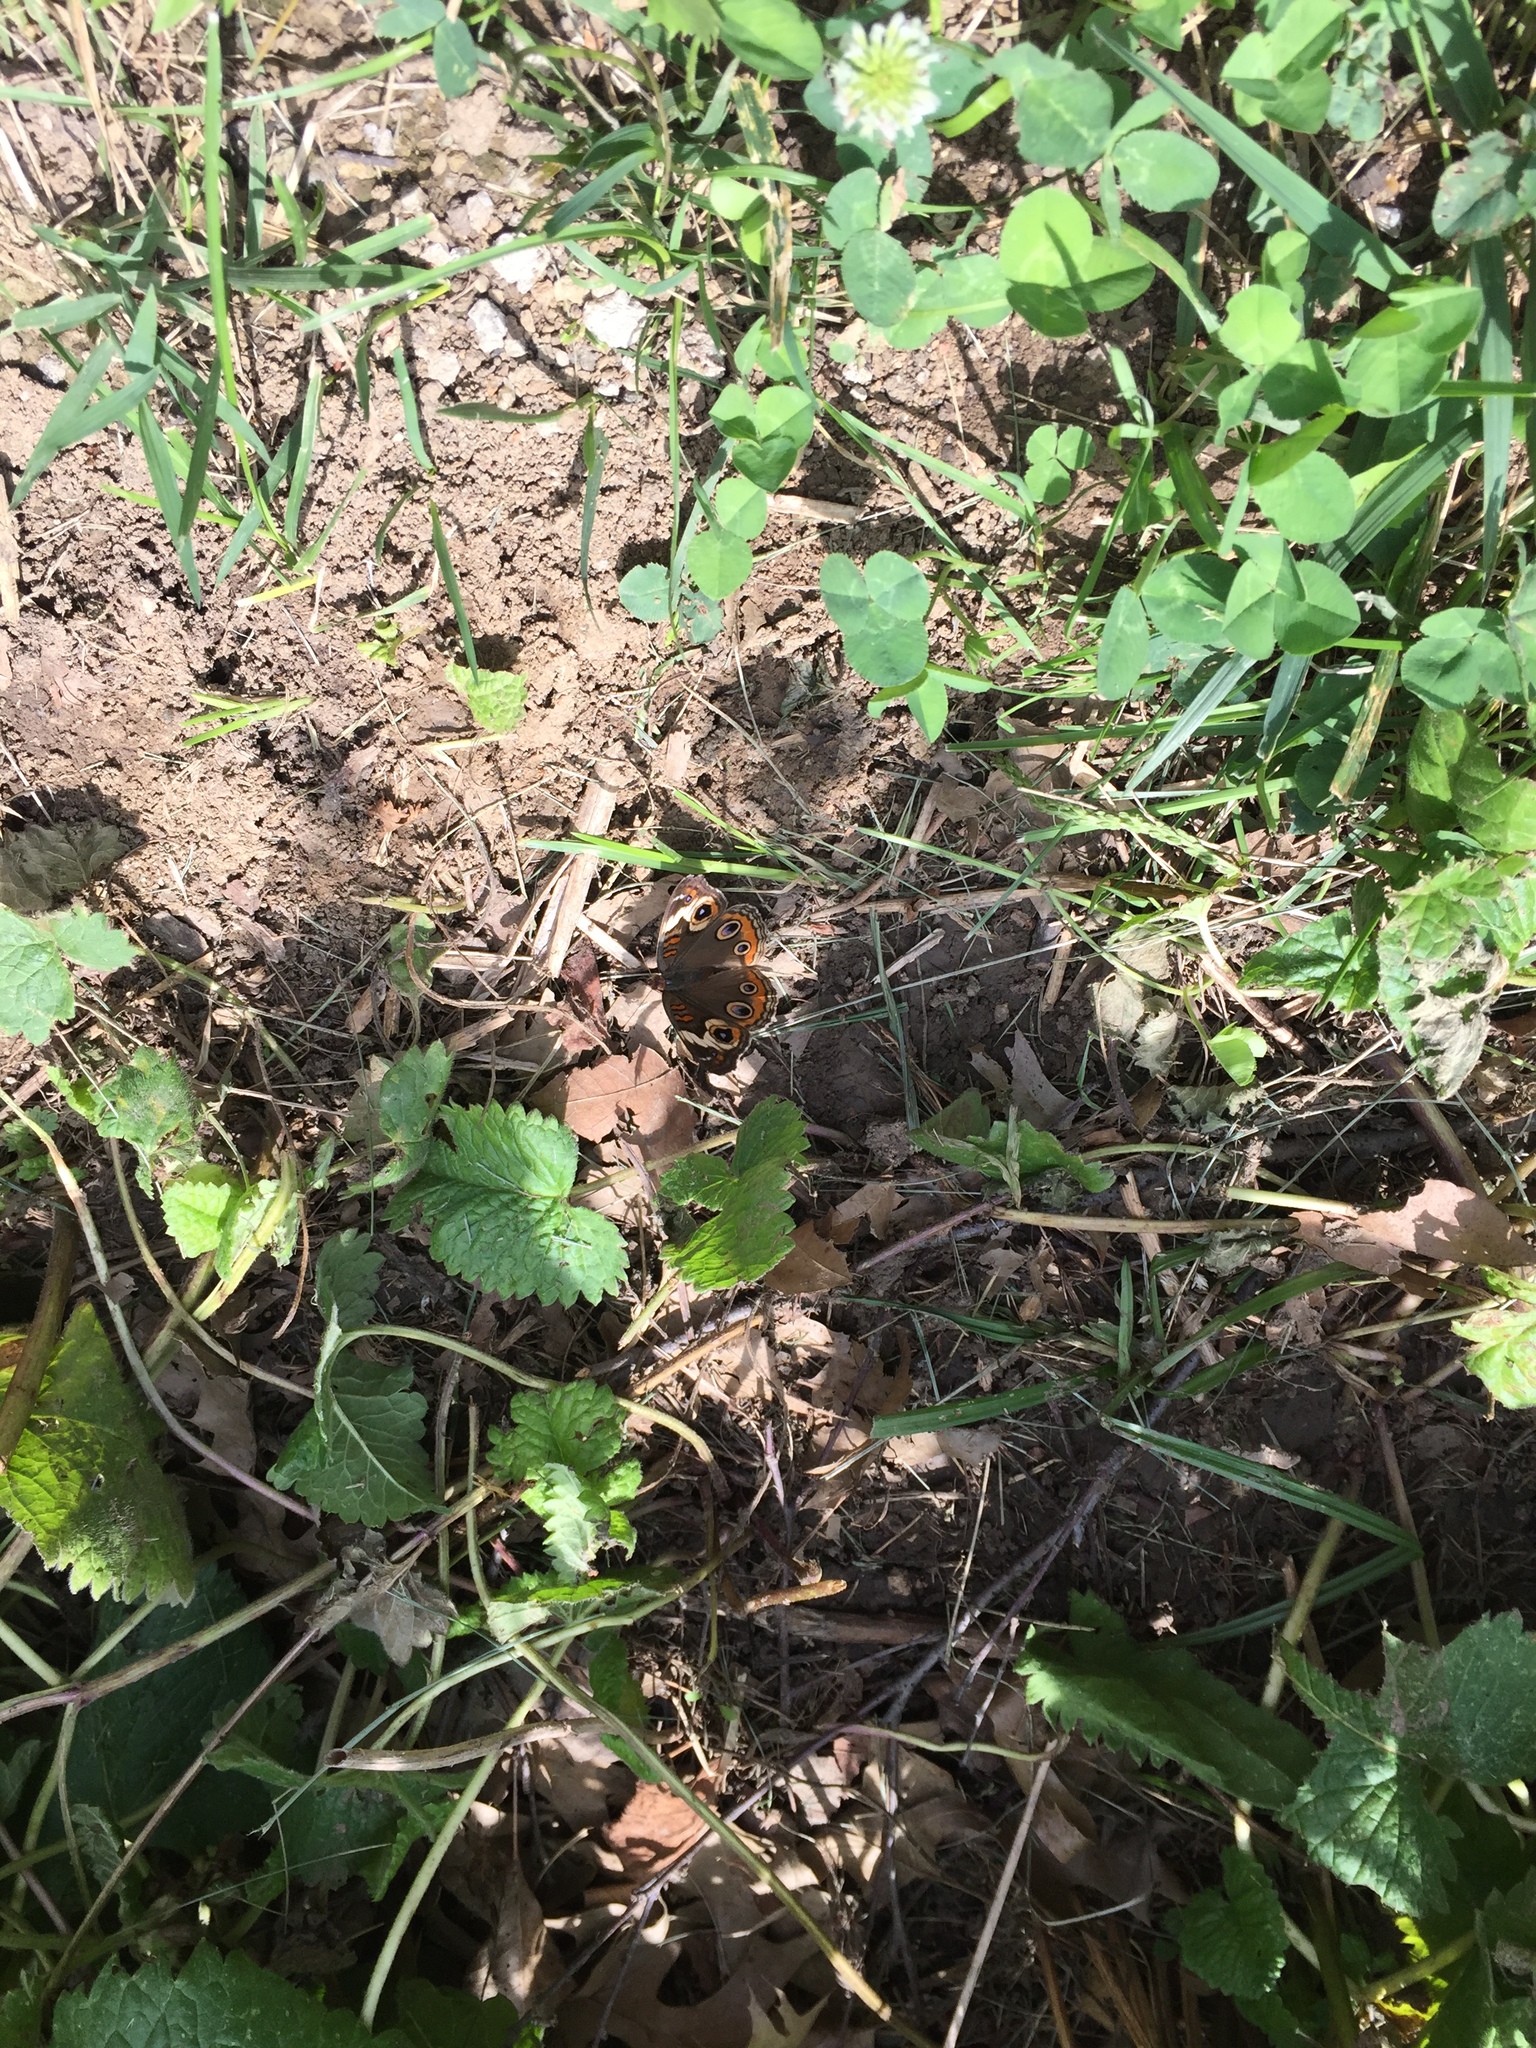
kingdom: Animalia
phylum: Arthropoda
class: Insecta
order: Lepidoptera
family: Nymphalidae
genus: Junonia
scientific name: Junonia coenia
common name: Common buckeye
